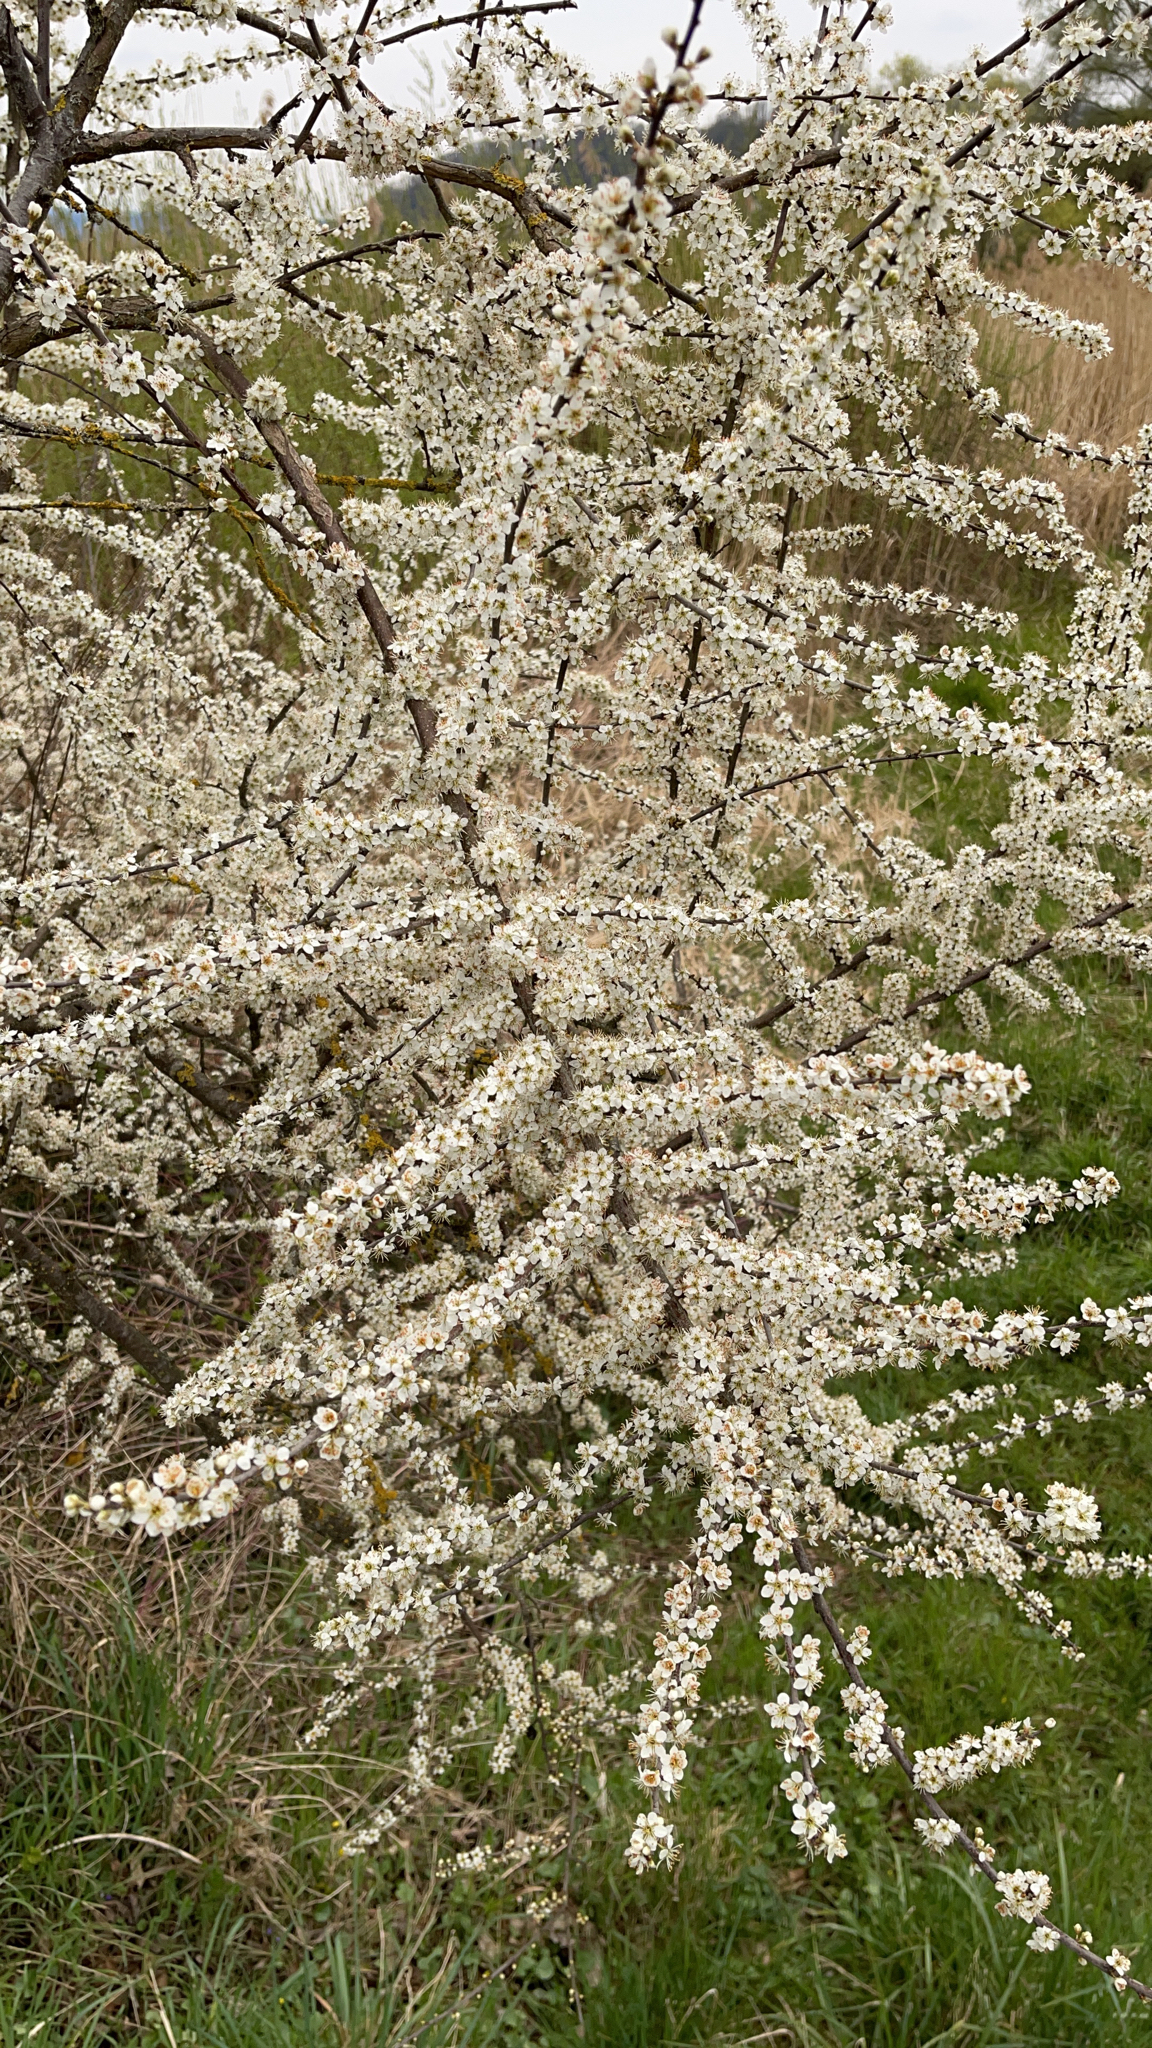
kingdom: Plantae
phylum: Tracheophyta
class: Magnoliopsida
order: Rosales
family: Rosaceae
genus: Prunus
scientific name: Prunus spinosa
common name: Blackthorn
